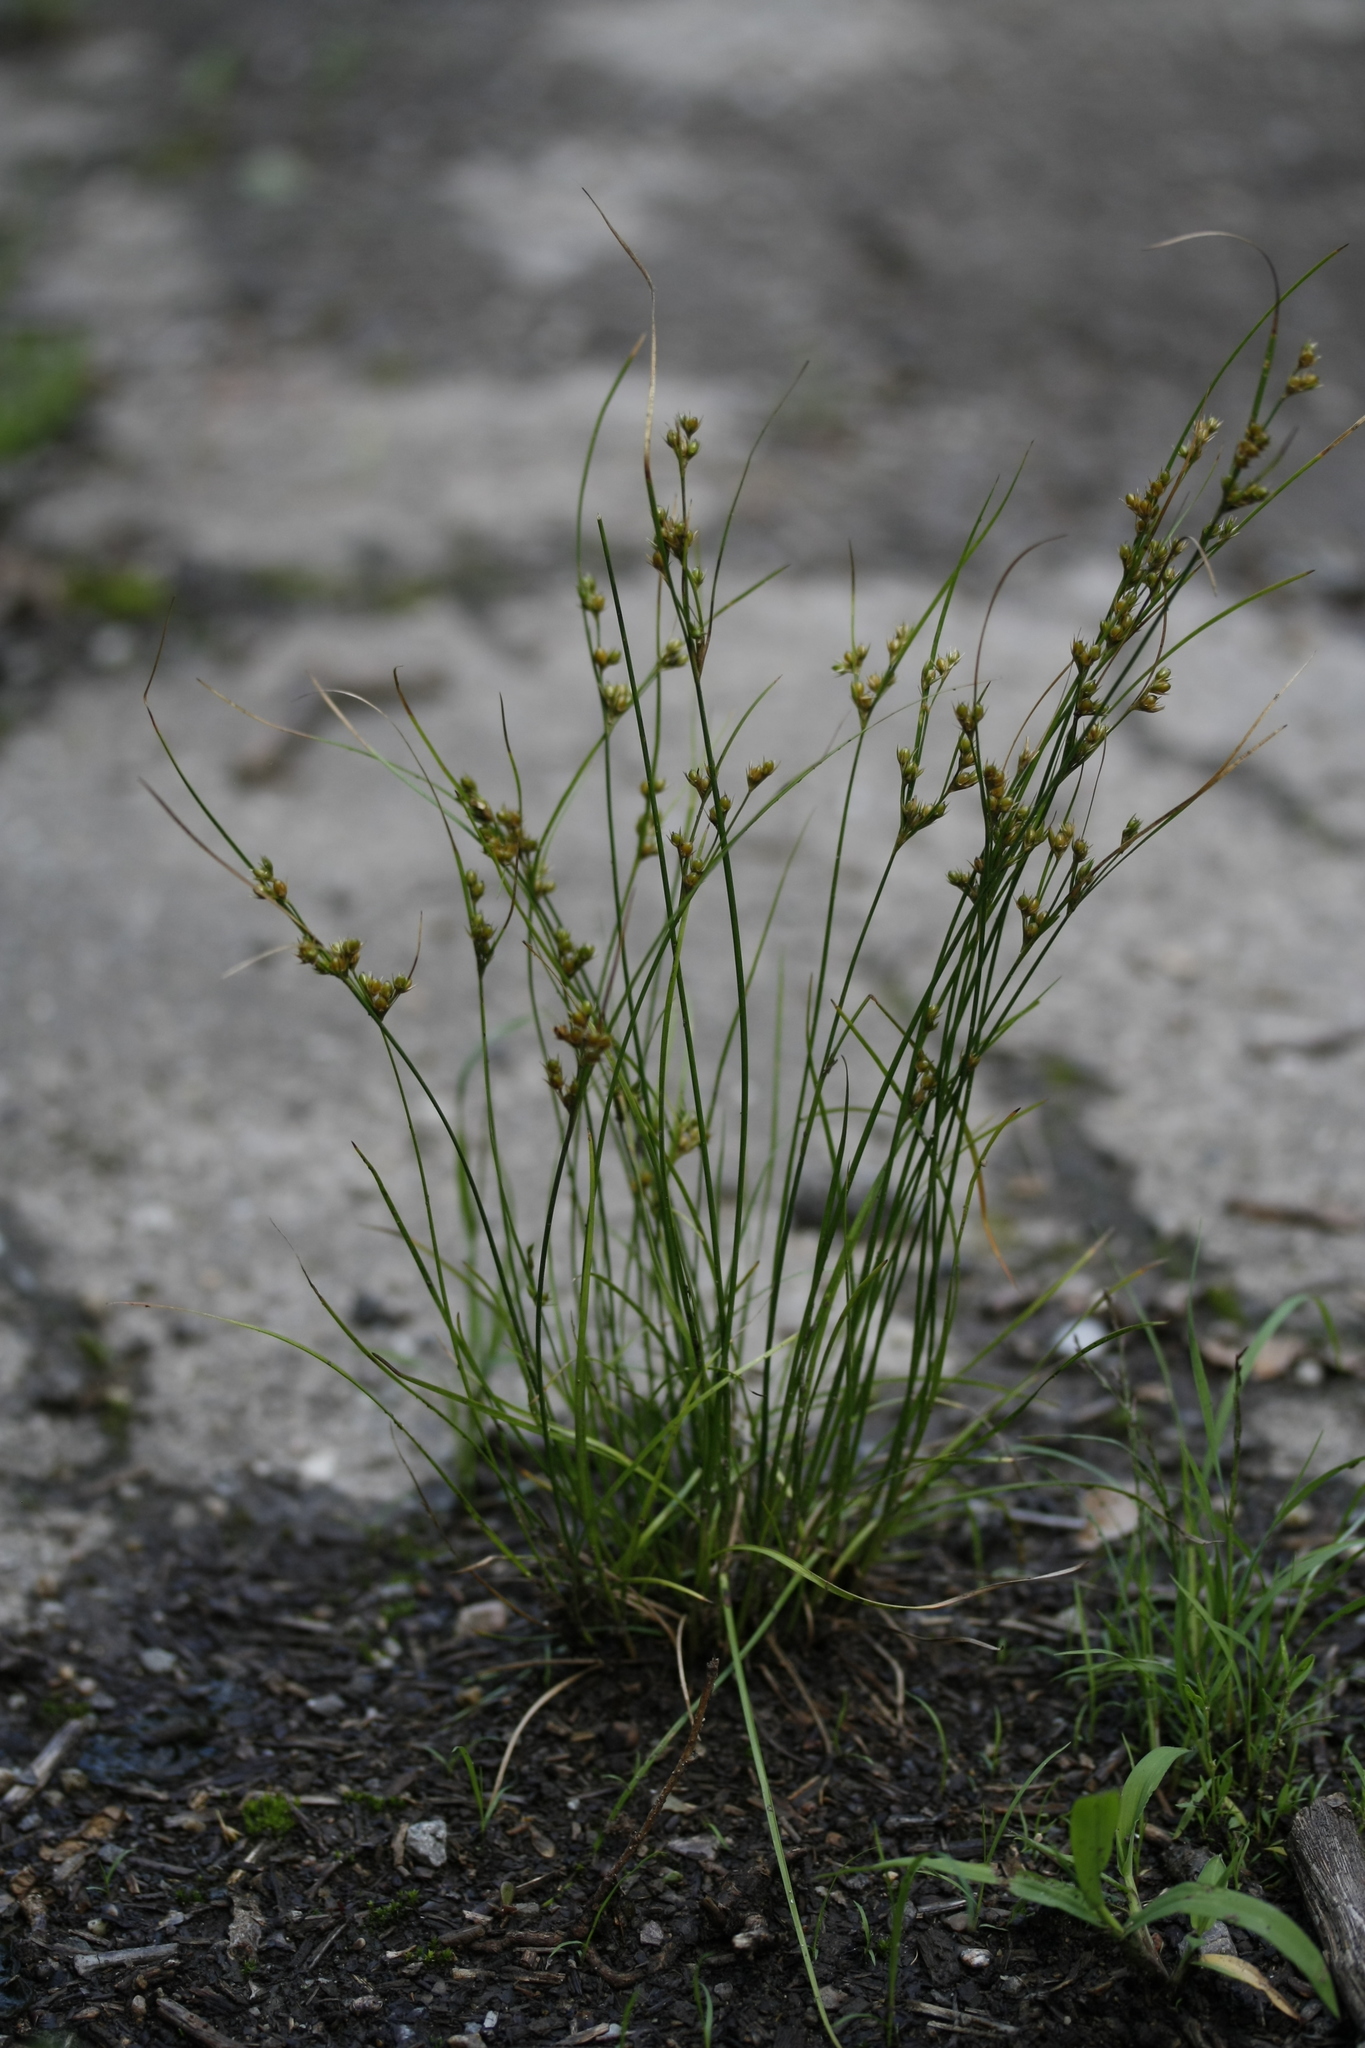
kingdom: Plantae
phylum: Tracheophyta
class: Liliopsida
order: Poales
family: Juncaceae
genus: Juncus
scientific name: Juncus tenuis
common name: Slender rush
